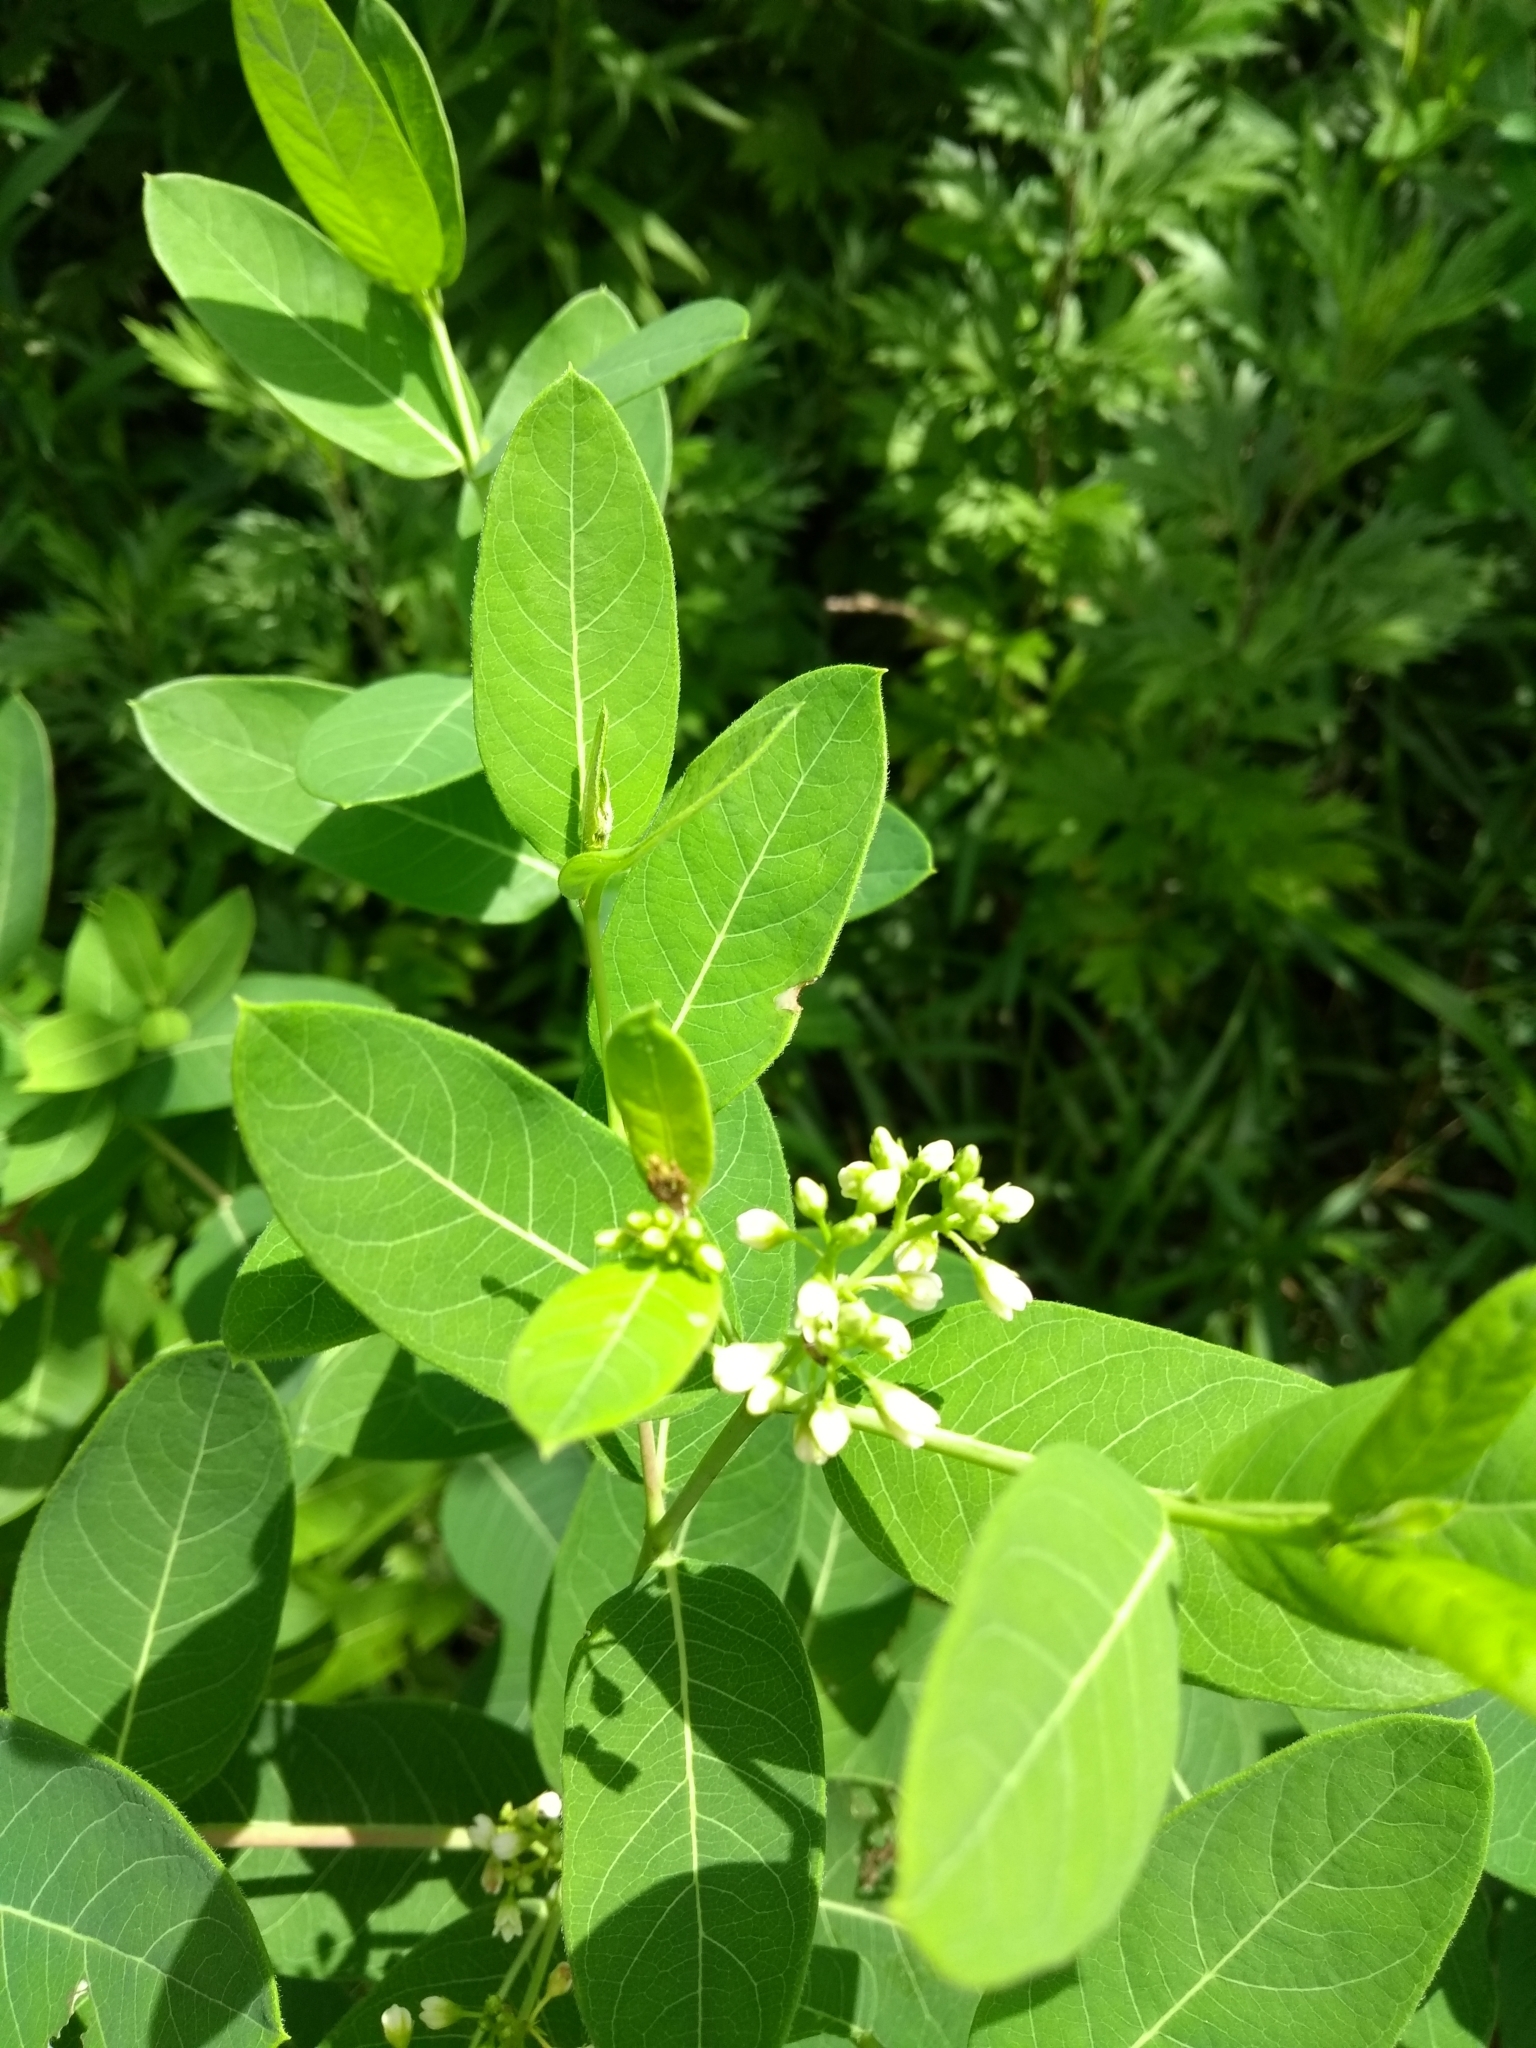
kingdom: Plantae
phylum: Tracheophyta
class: Magnoliopsida
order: Gentianales
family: Apocynaceae
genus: Apocynum
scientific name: Apocynum cannabinum
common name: Hemp dogbane
